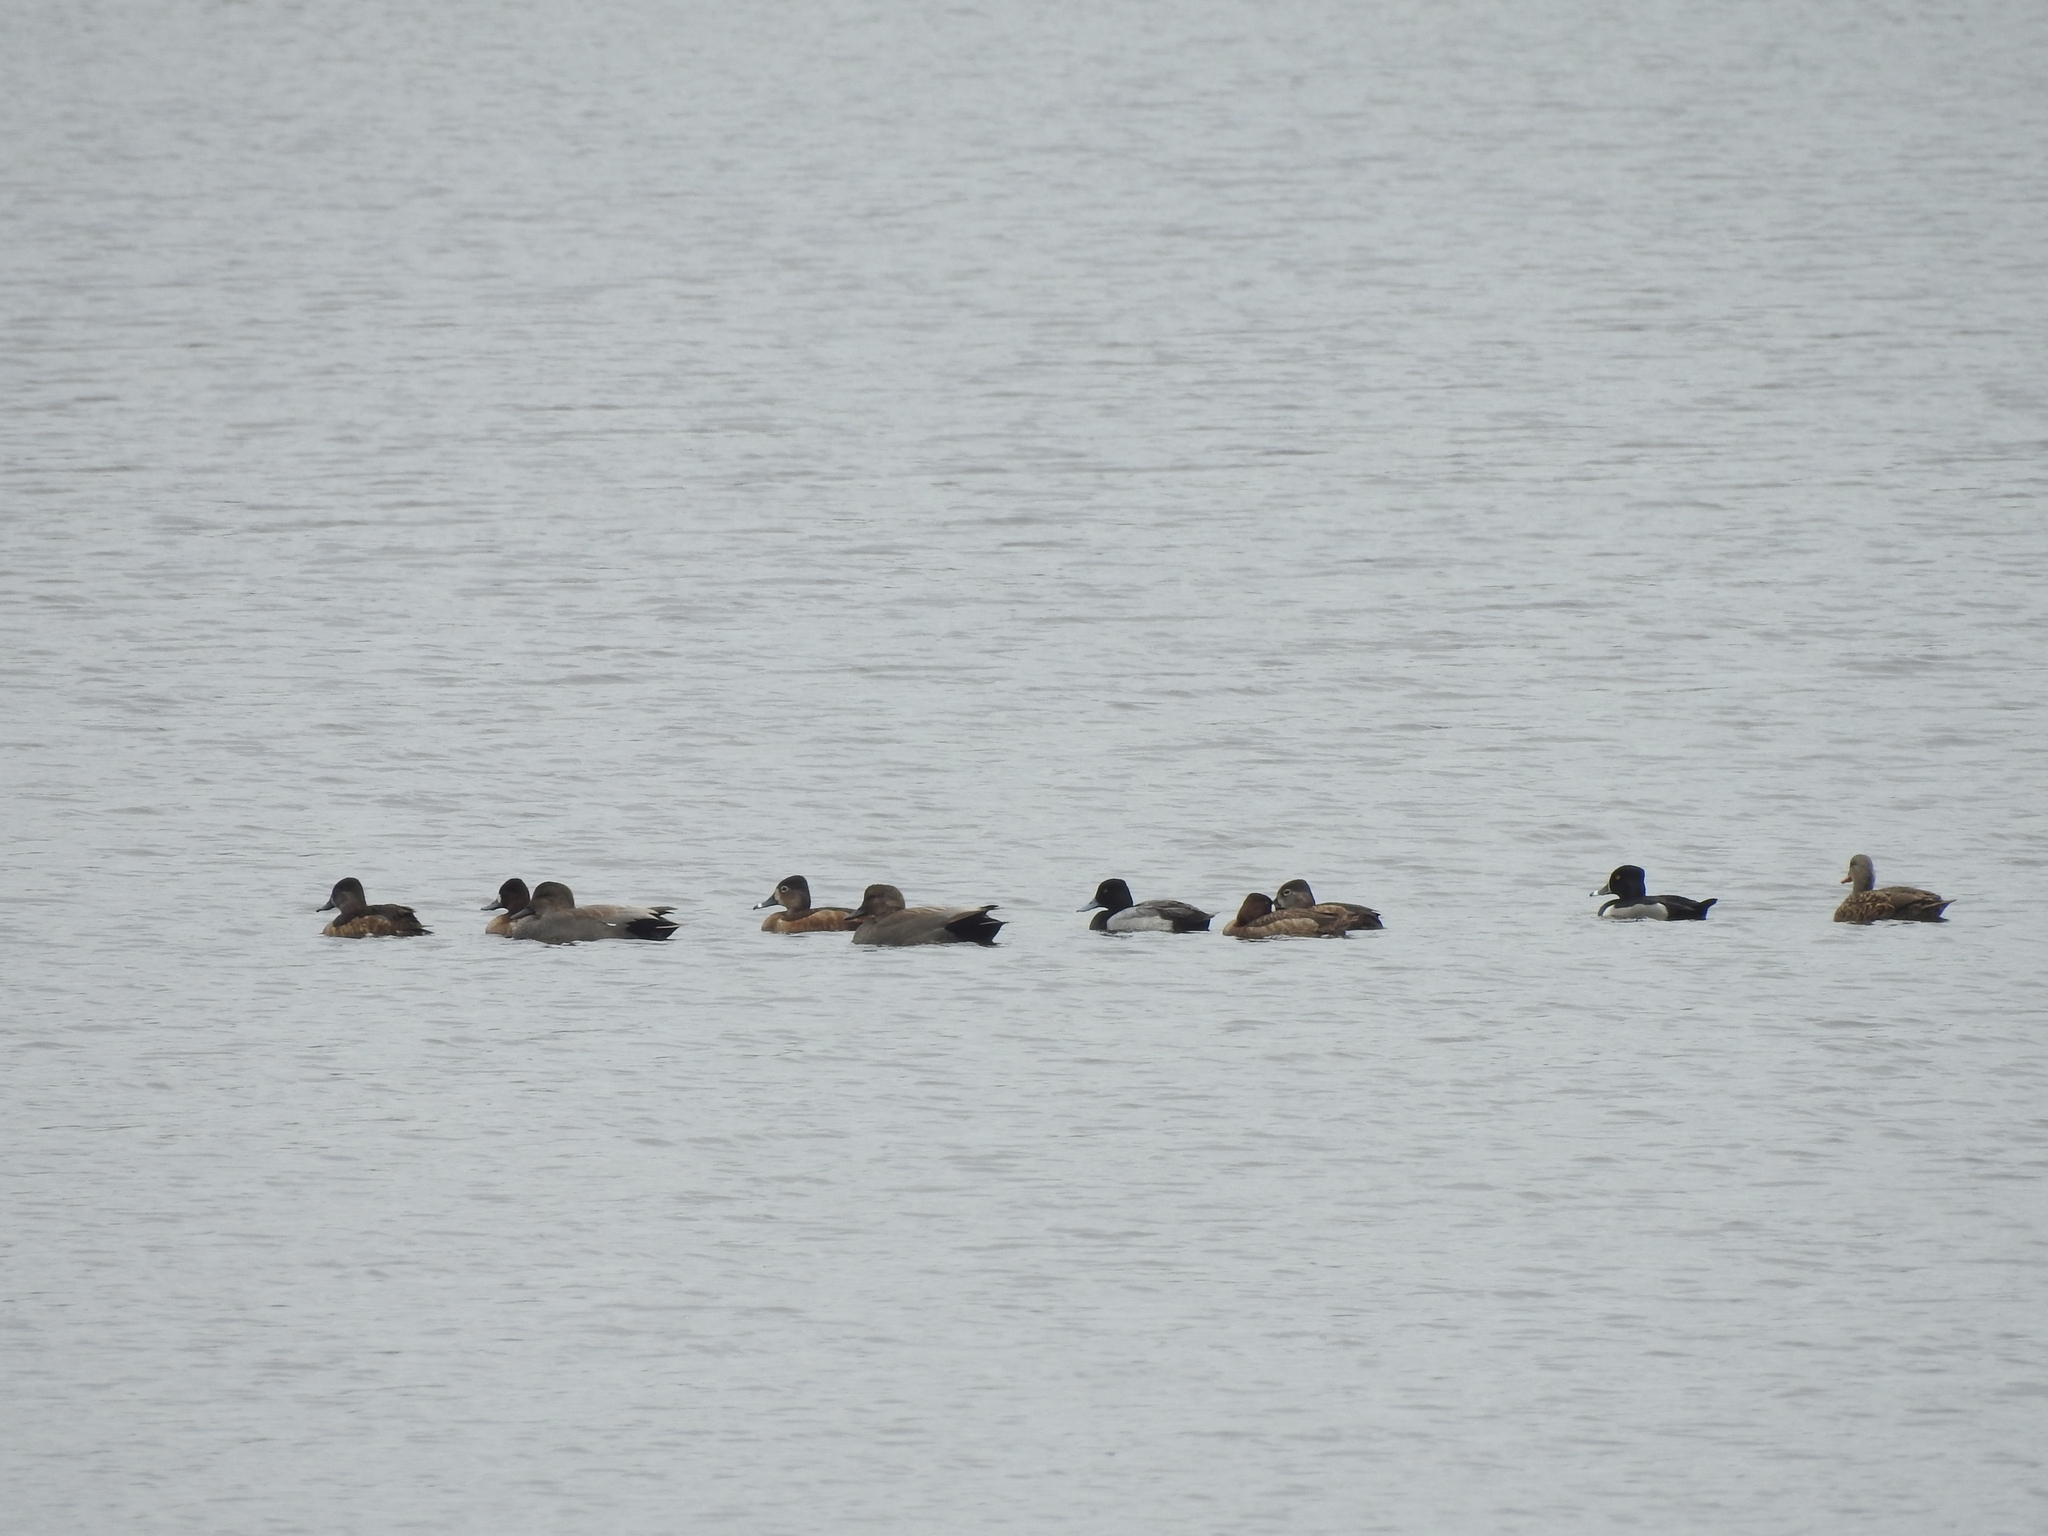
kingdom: Animalia
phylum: Chordata
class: Aves
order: Anseriformes
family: Anatidae
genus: Aythya
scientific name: Aythya affinis
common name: Lesser scaup
